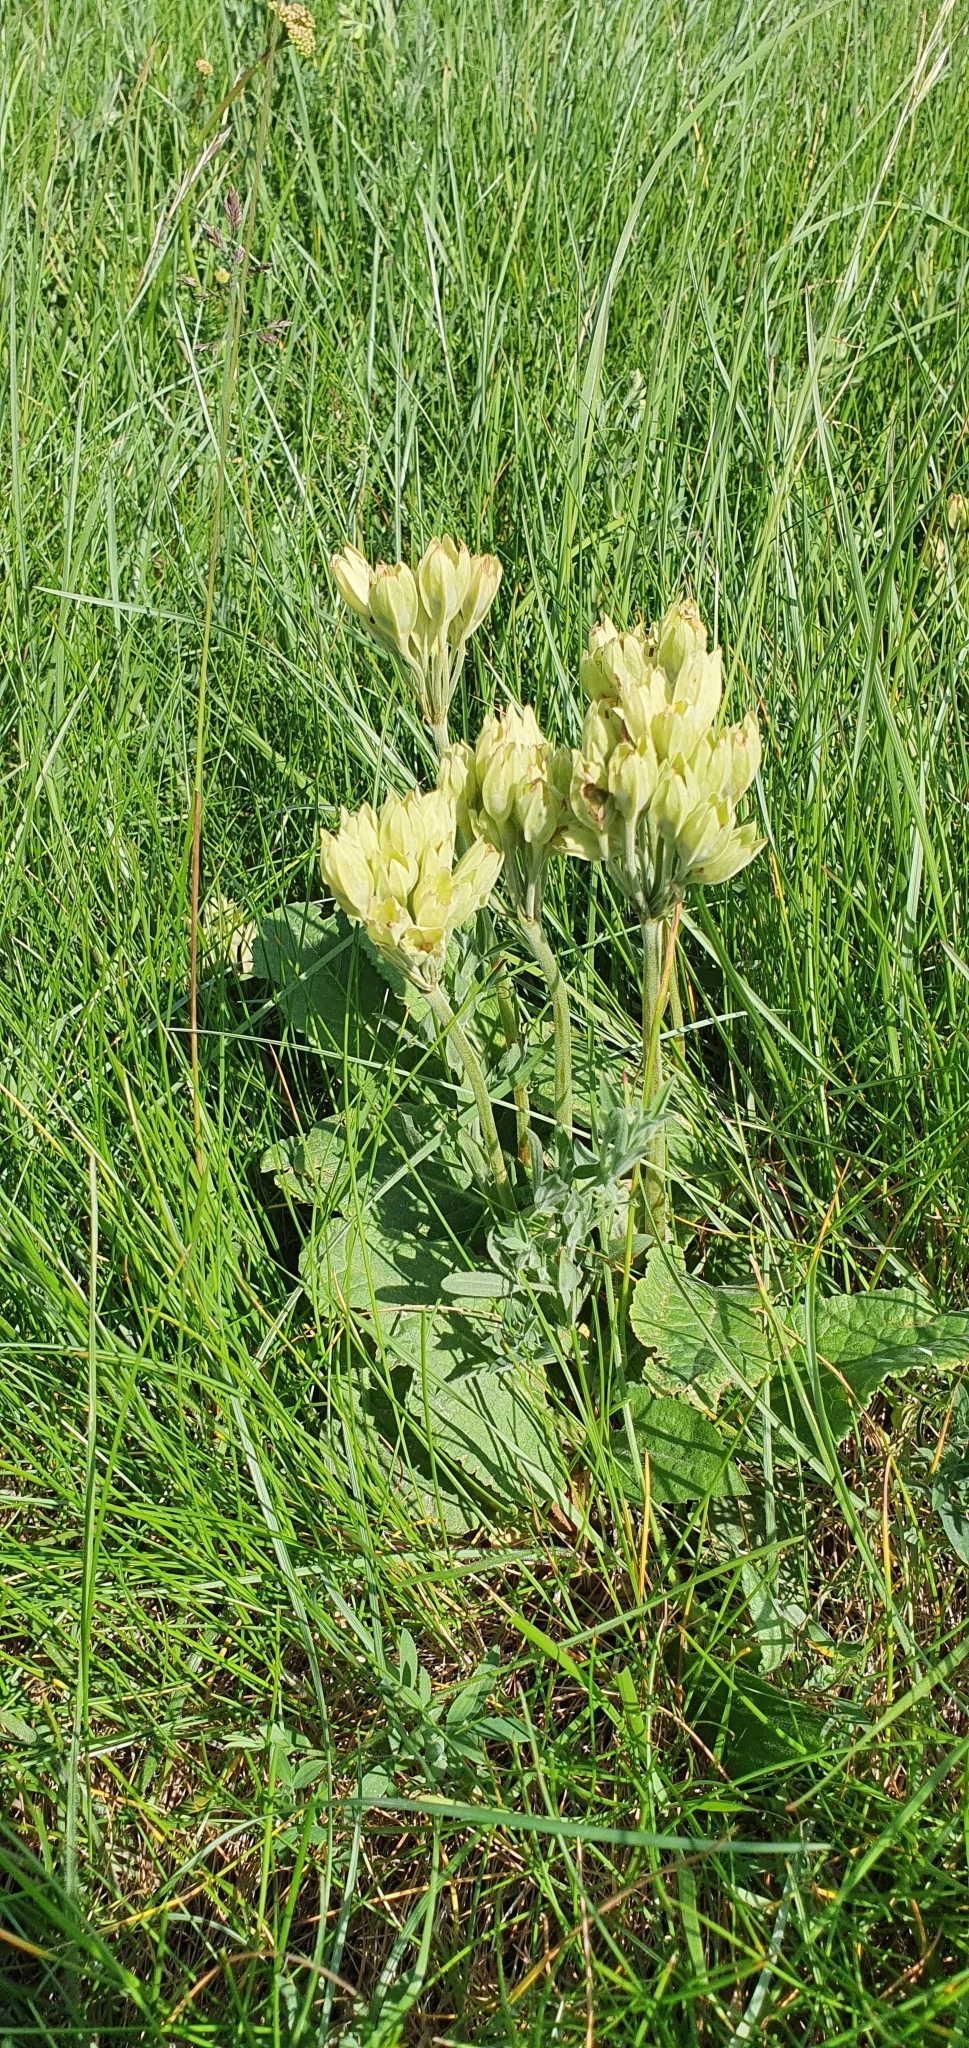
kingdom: Plantae
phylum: Tracheophyta
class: Magnoliopsida
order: Ericales
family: Primulaceae
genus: Primula
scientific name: Primula veris
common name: Cowslip
